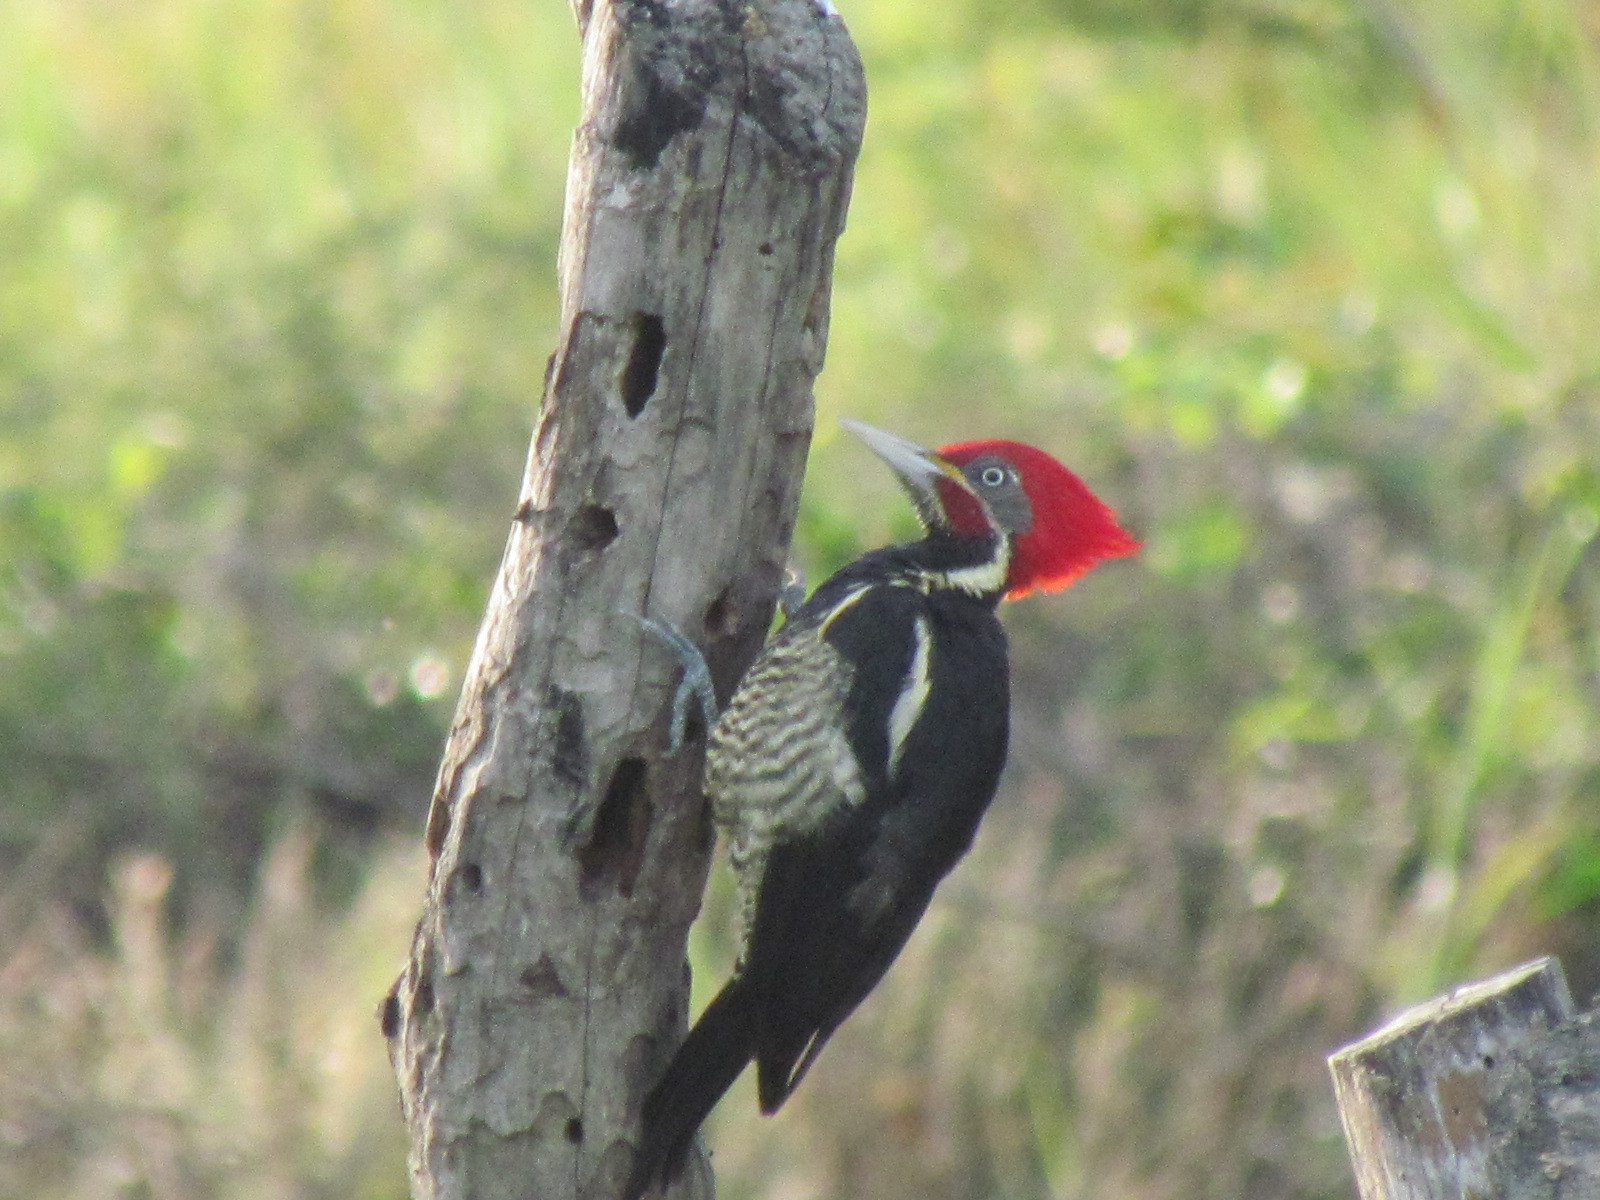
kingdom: Animalia
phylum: Chordata
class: Aves
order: Piciformes
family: Picidae
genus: Dryocopus
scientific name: Dryocopus lineatus
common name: Lineated woodpecker
